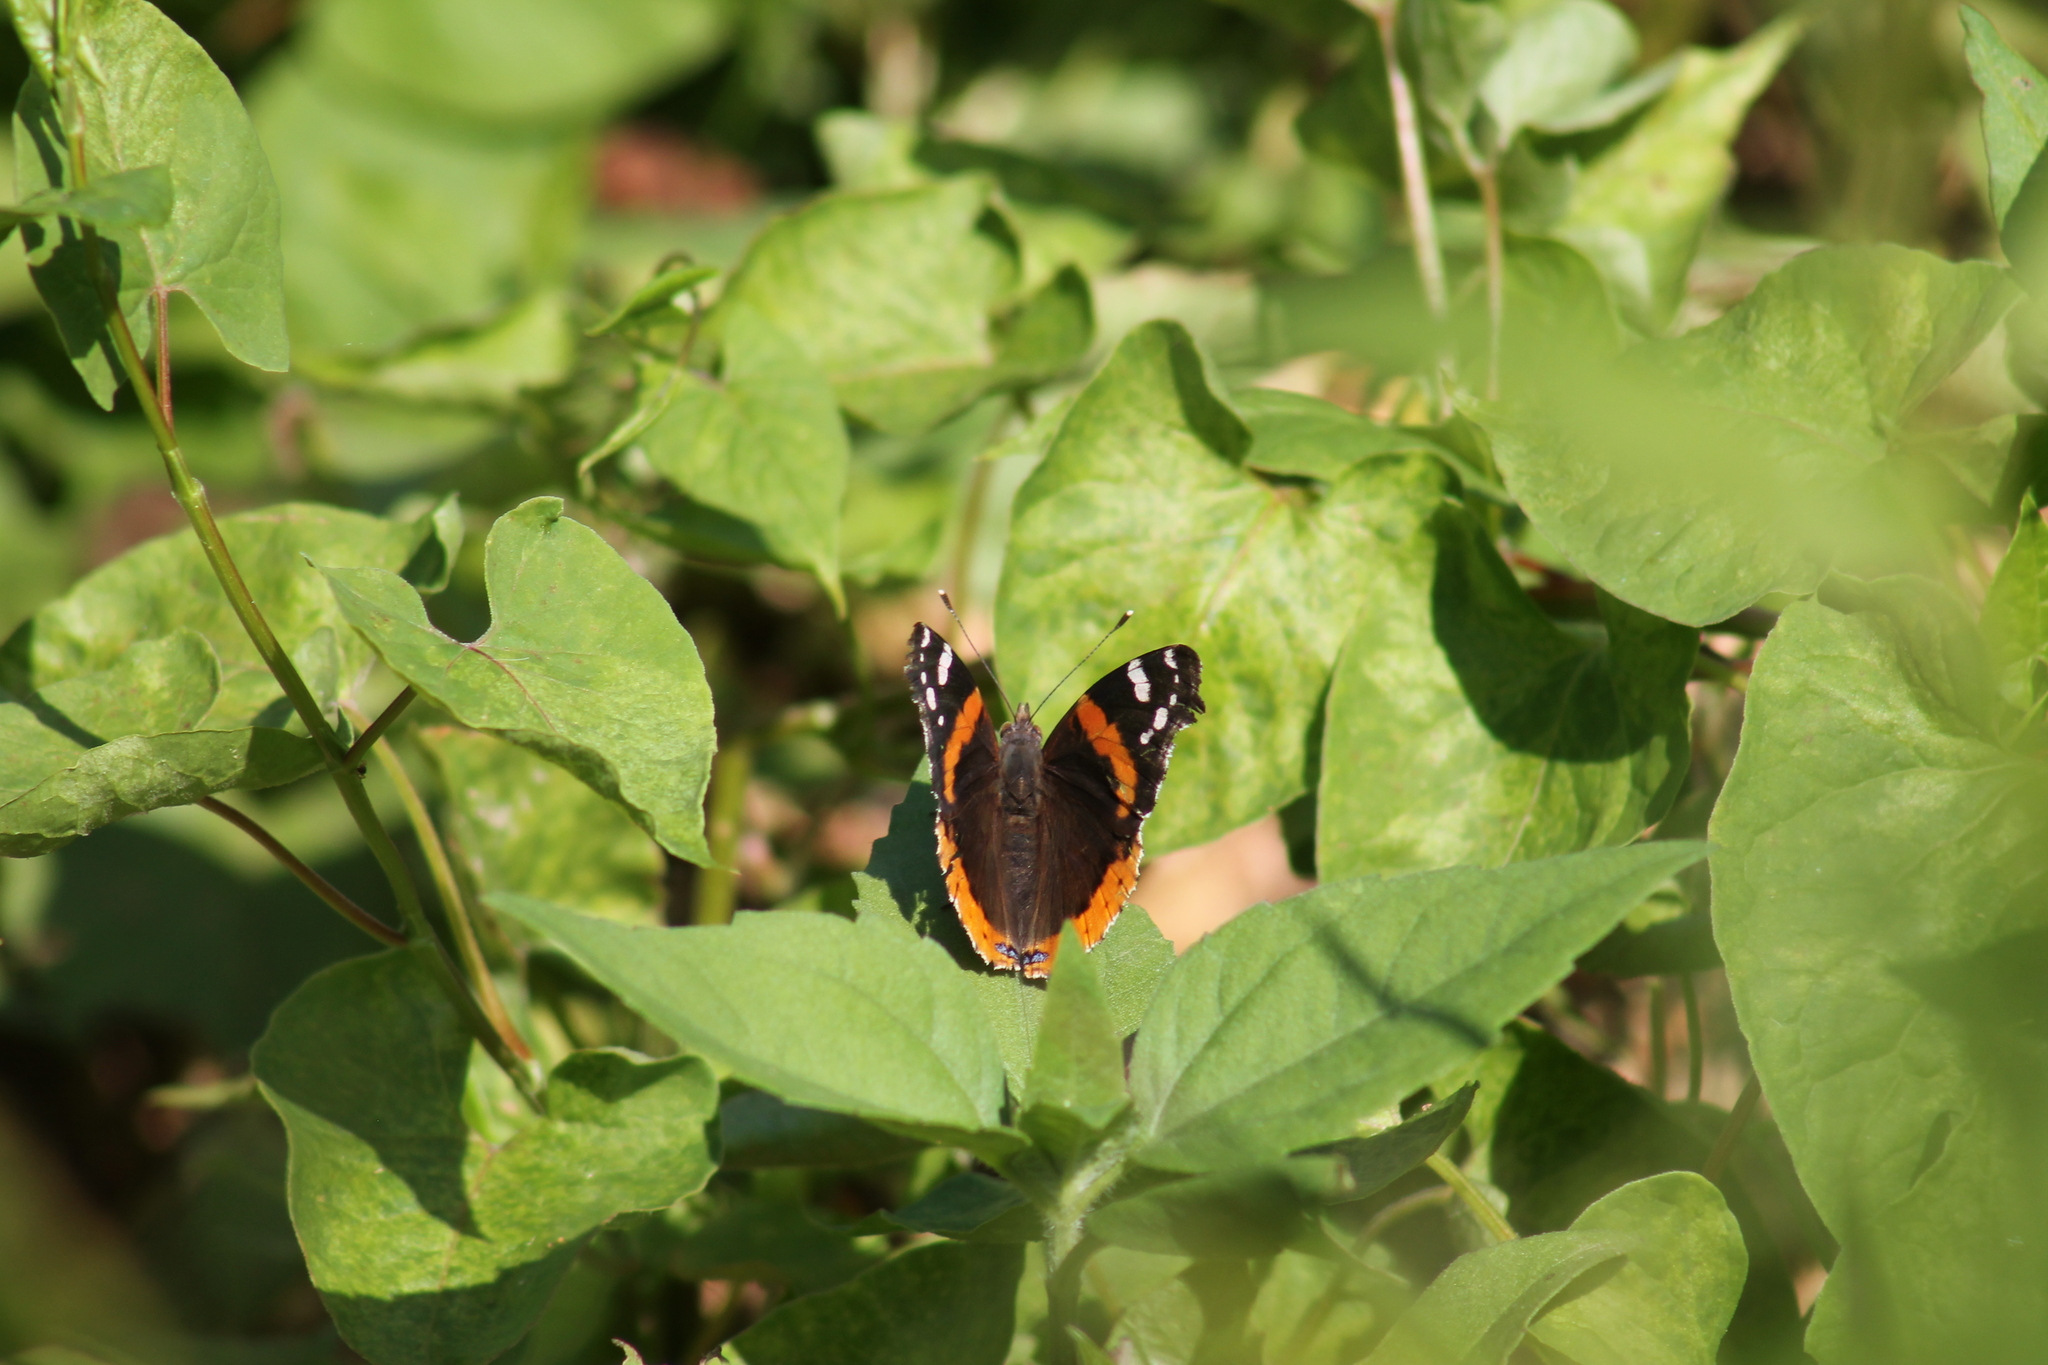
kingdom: Animalia
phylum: Arthropoda
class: Insecta
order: Lepidoptera
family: Nymphalidae
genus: Vanessa
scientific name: Vanessa atalanta
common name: Red admiral
